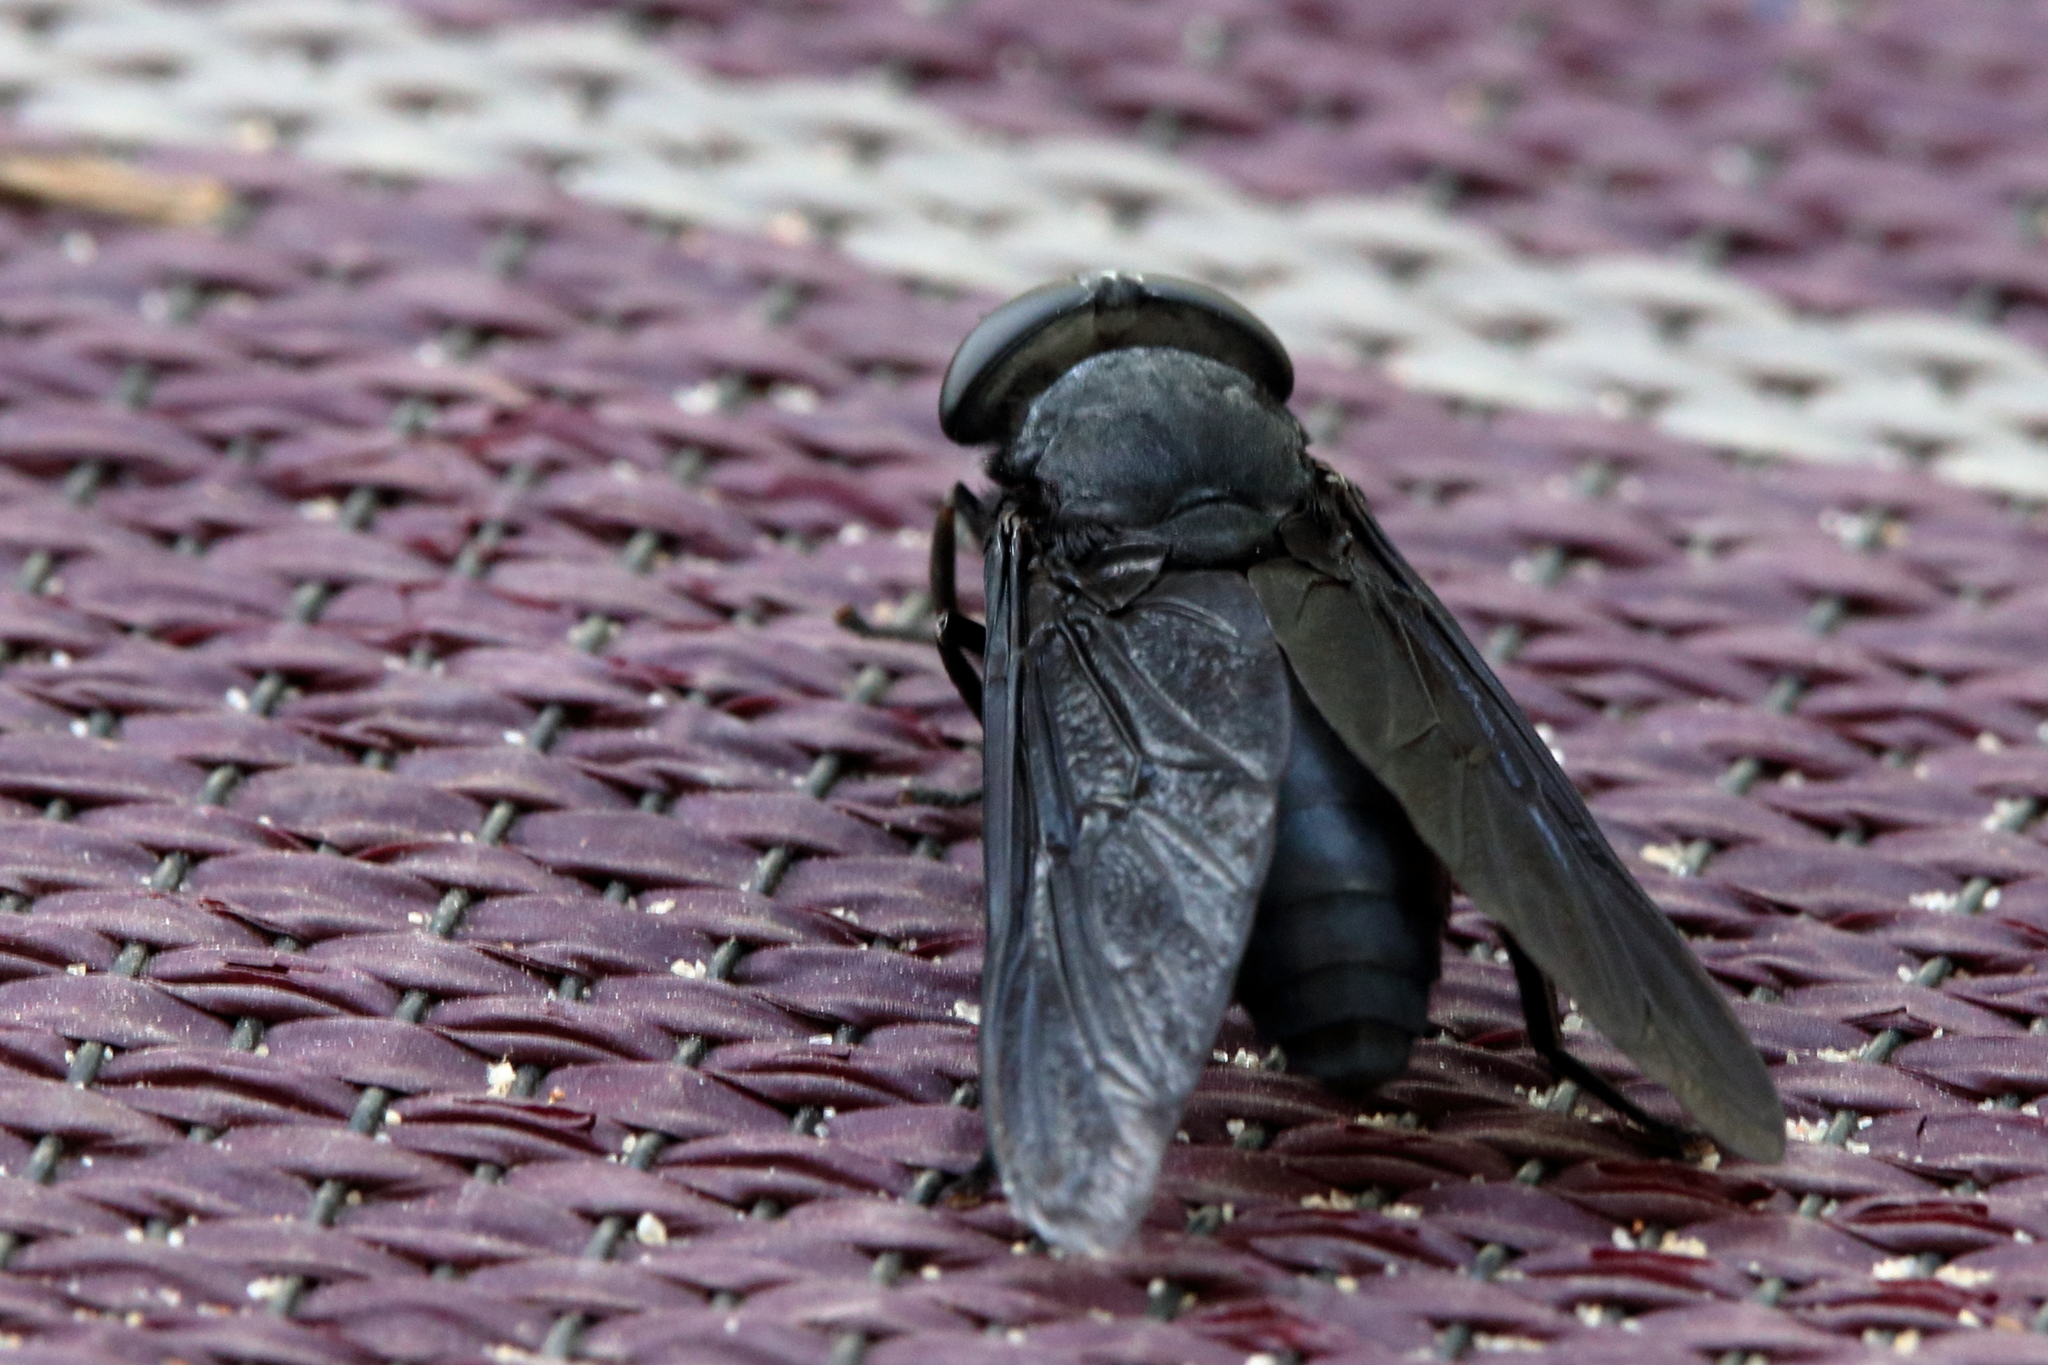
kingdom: Animalia
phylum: Arthropoda
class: Insecta
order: Diptera
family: Tabanidae
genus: Tabanus
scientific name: Tabanus atratus
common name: Black horse fly
